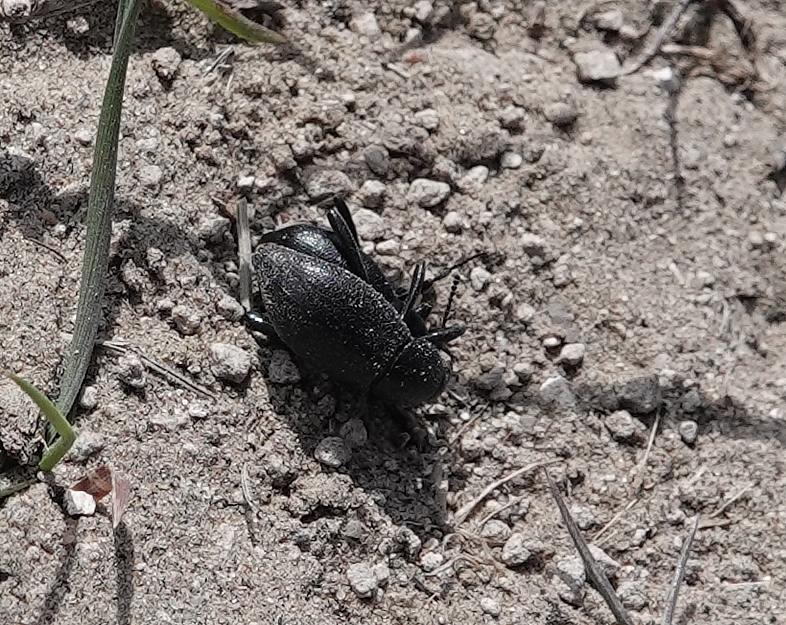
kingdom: Animalia
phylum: Arthropoda
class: Insecta
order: Coleoptera
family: Tenebrionidae
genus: Eleodes
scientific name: Eleodes extricata
